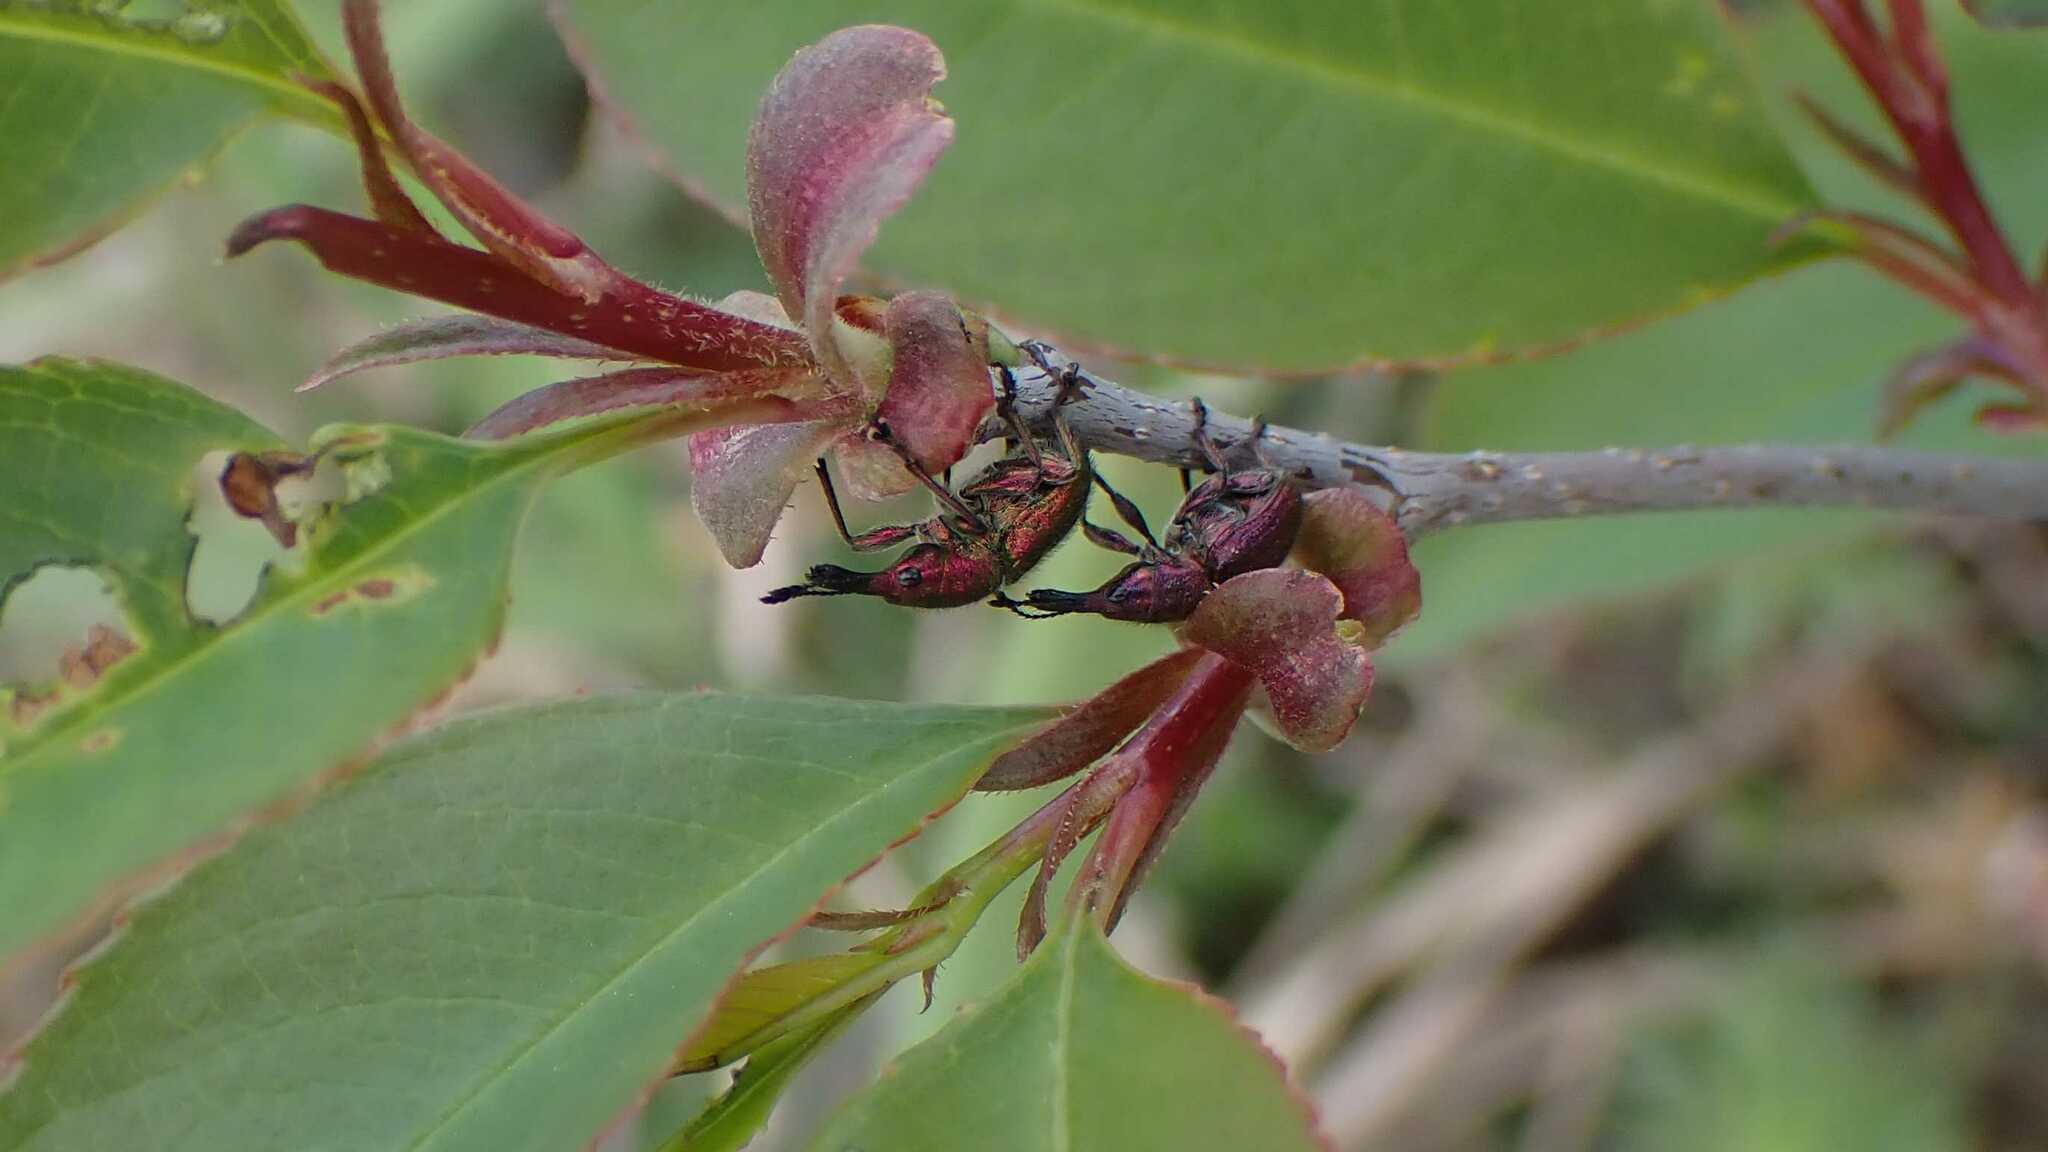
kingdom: Animalia
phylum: Arthropoda
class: Insecta
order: Coleoptera
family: Attelabidae
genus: Rhynchites
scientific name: Rhynchites auratus
